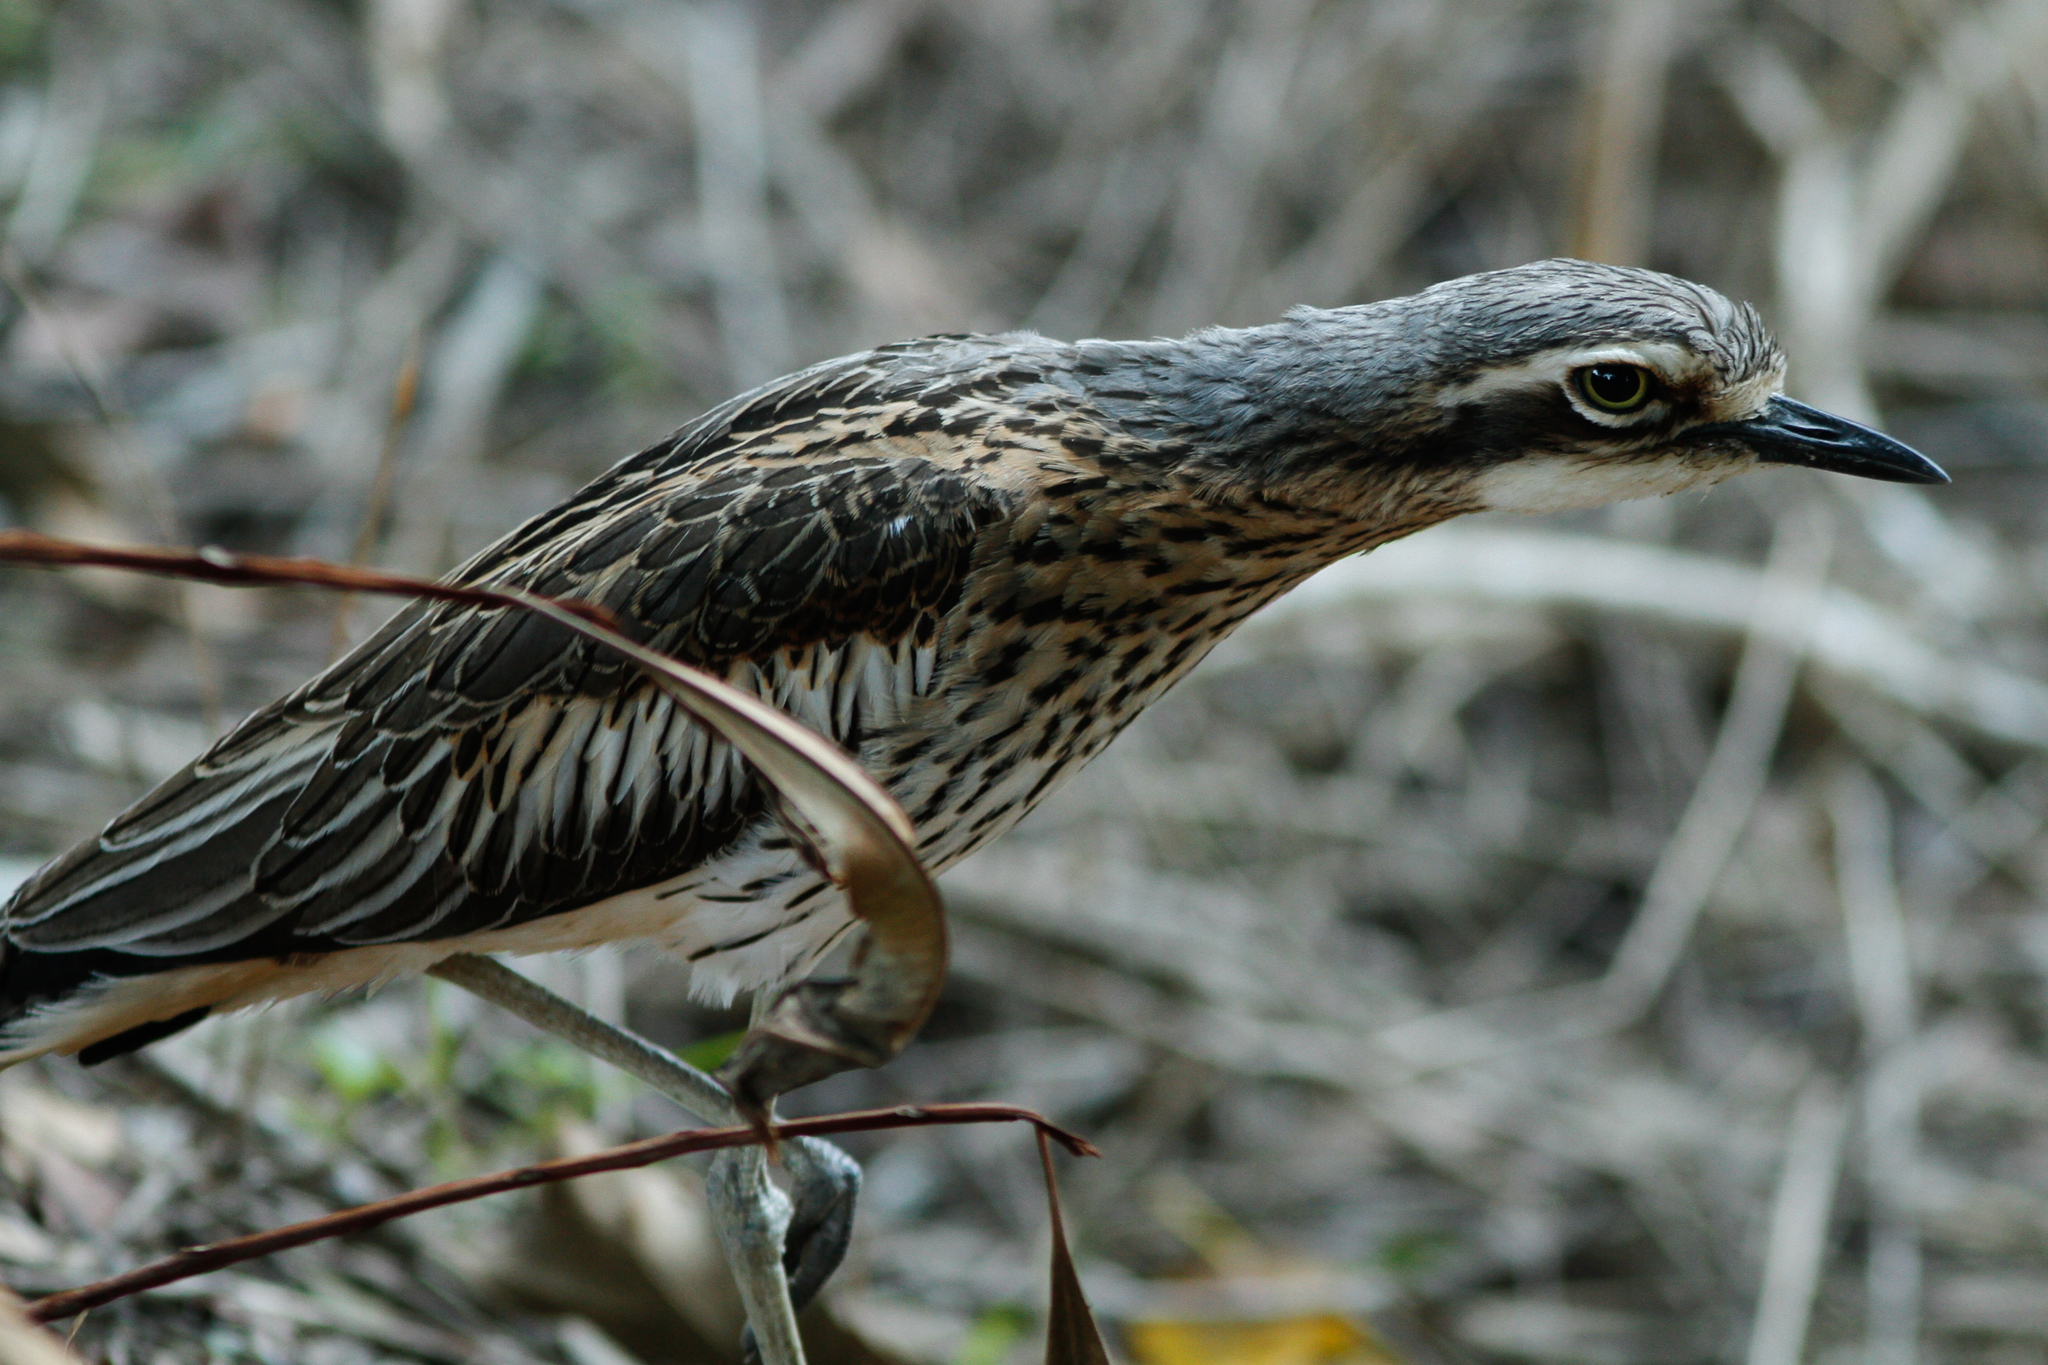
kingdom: Animalia
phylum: Chordata
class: Aves
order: Charadriiformes
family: Burhinidae
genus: Burhinus
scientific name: Burhinus grallarius
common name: Bush stone-curlew
